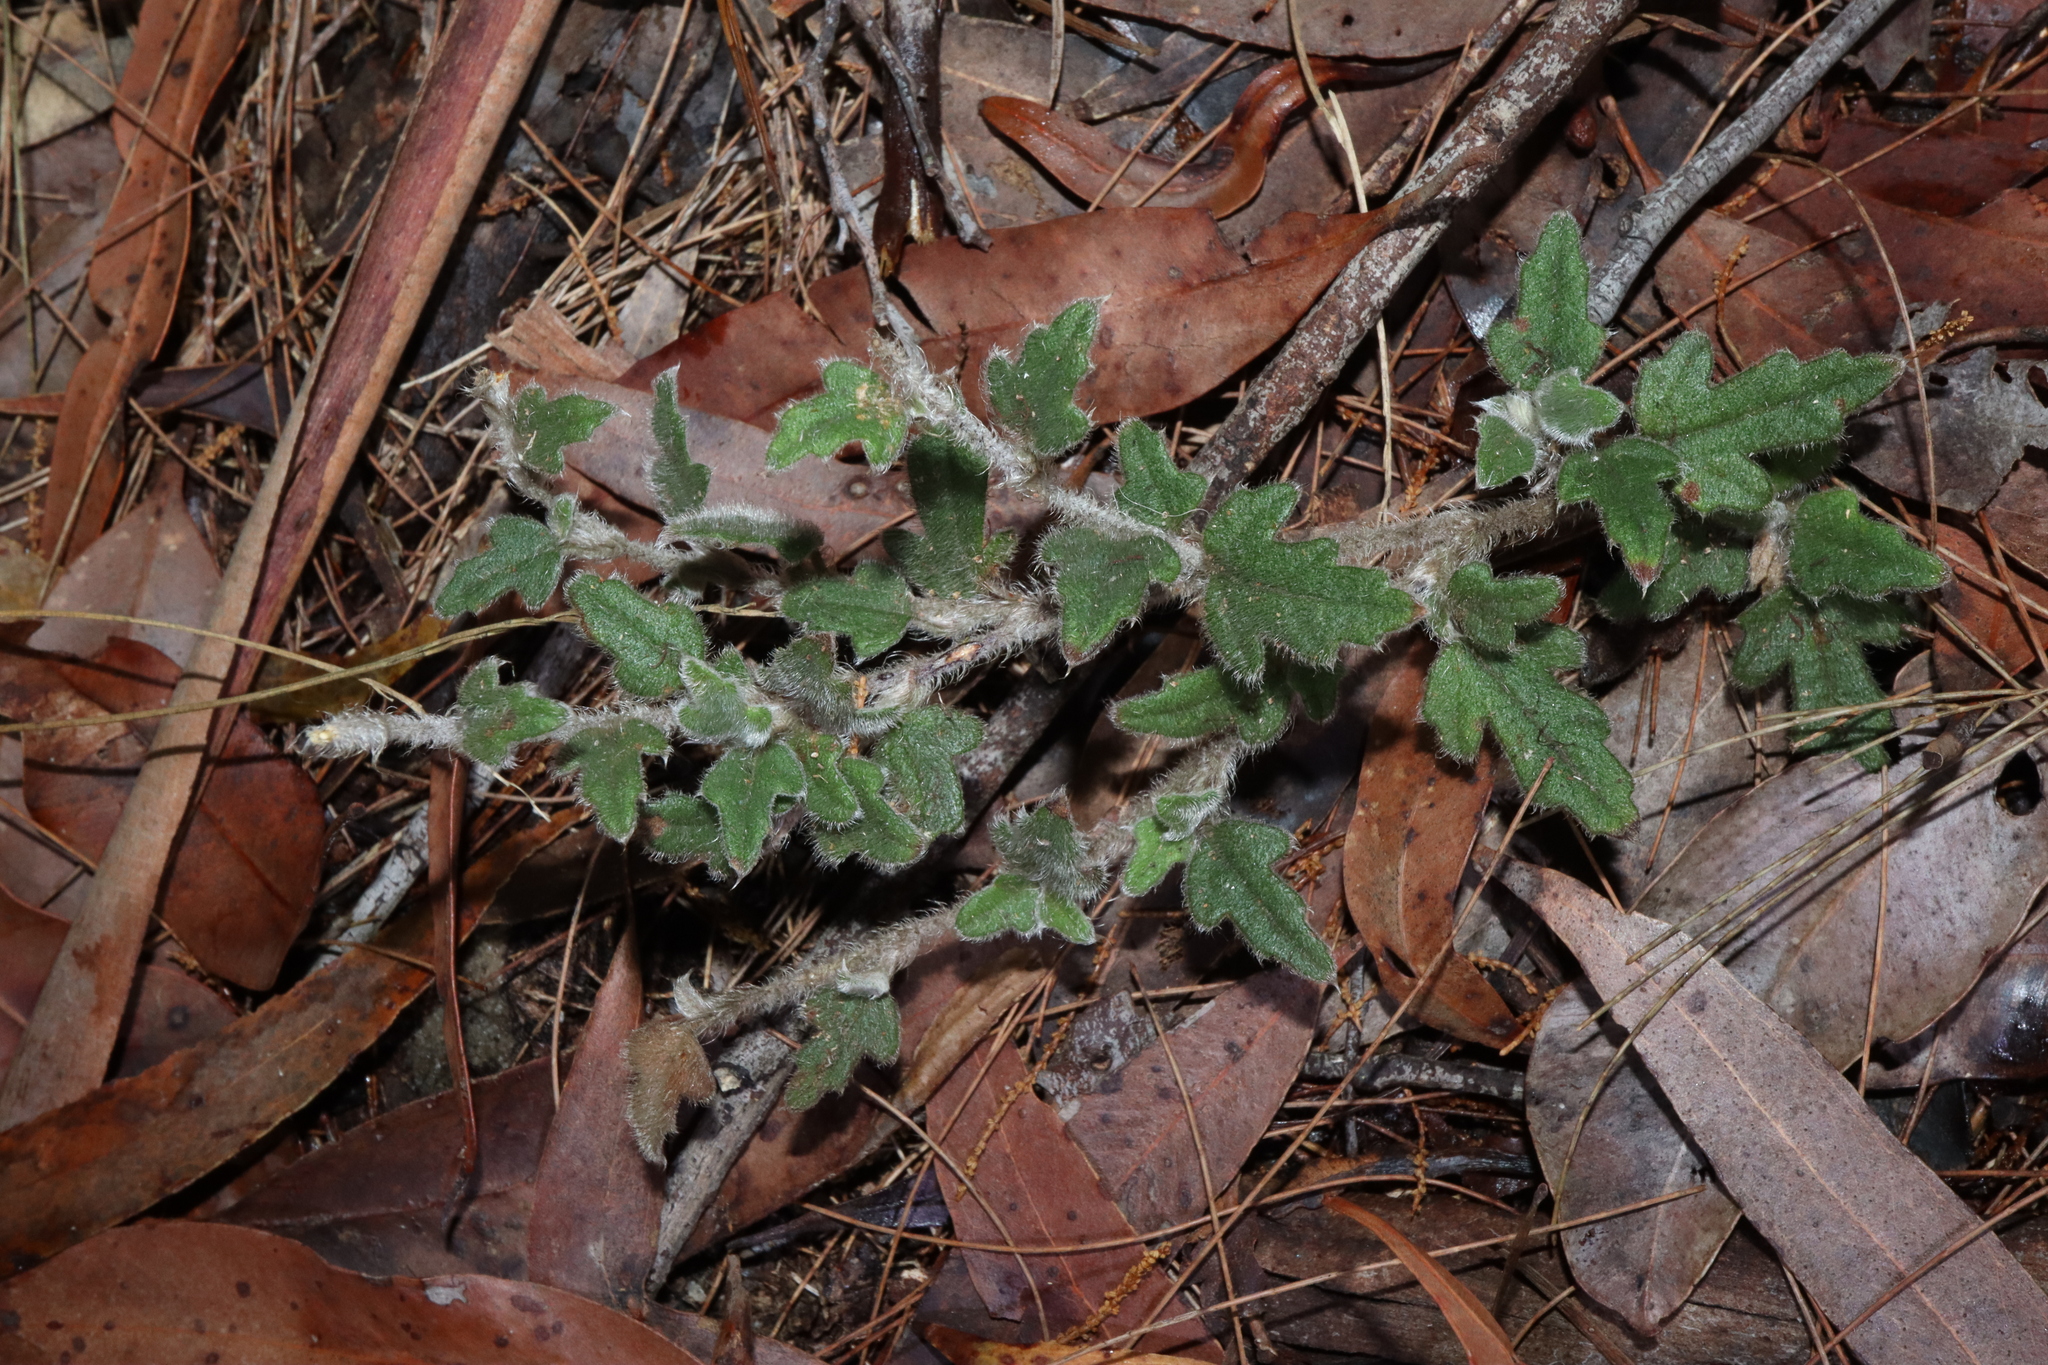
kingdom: Plantae
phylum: Tracheophyta
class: Magnoliopsida
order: Apiales
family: Apiaceae
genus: Xanthosia
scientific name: Xanthosia pilosa
